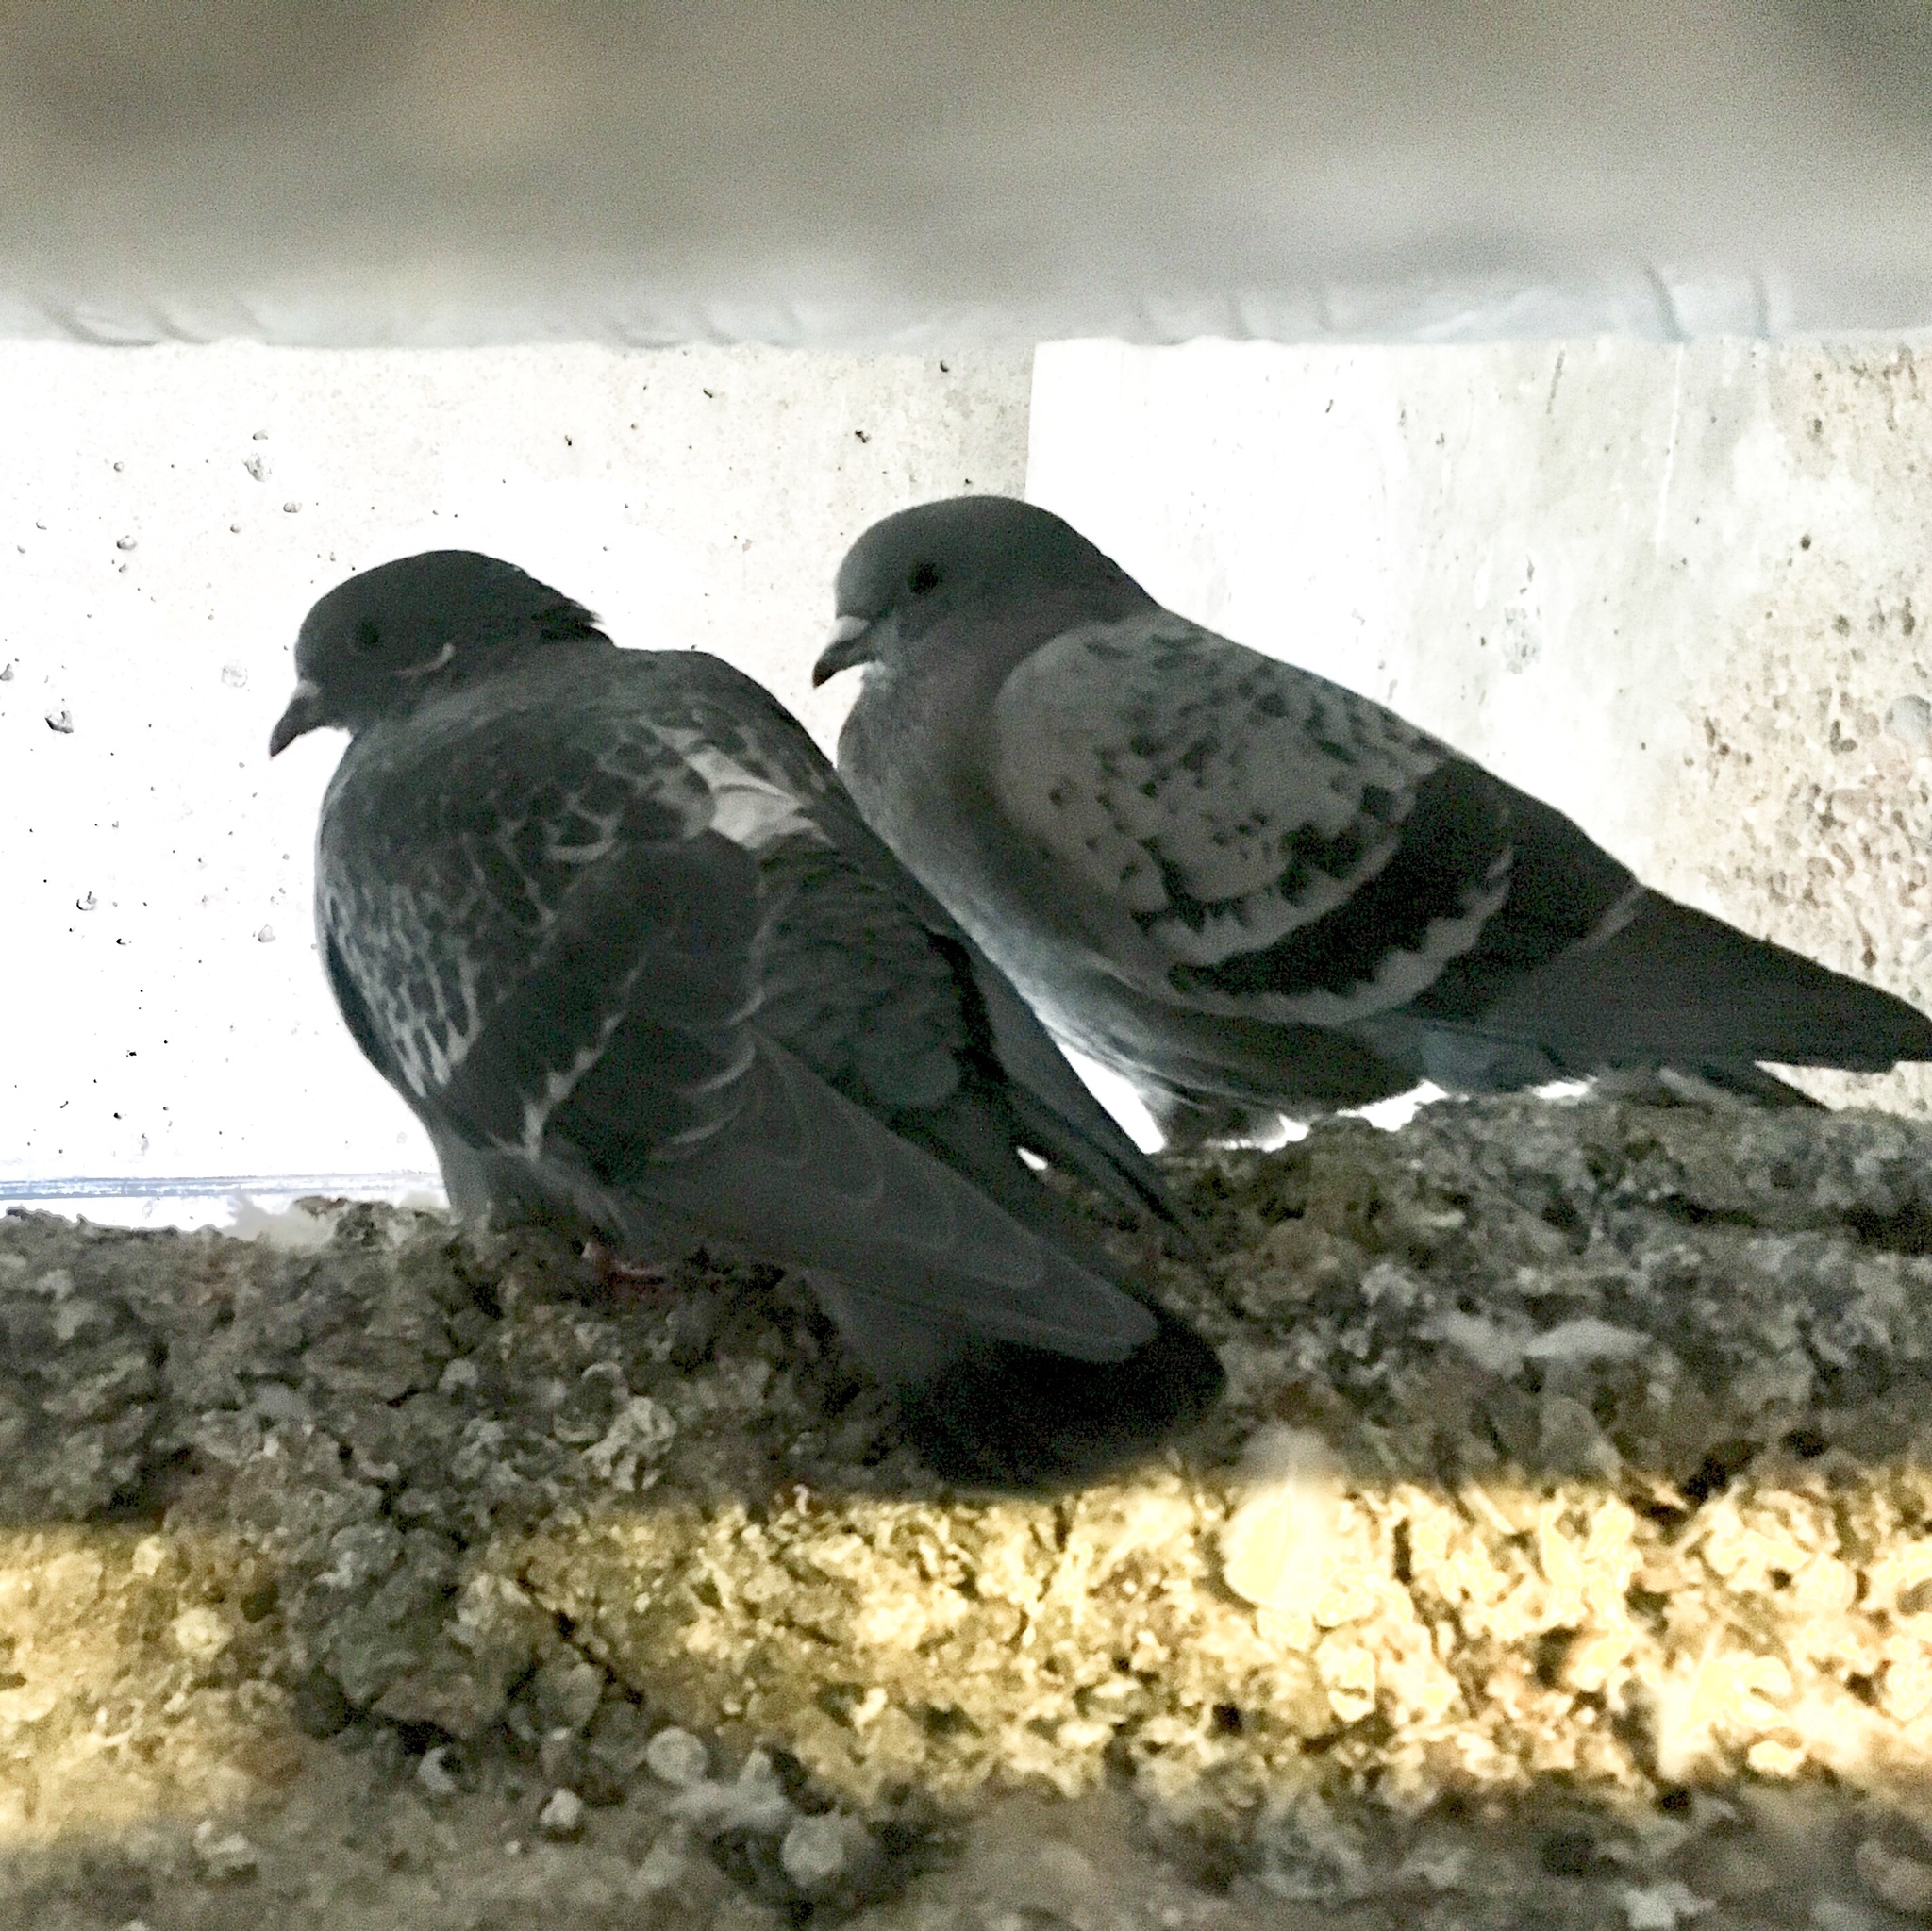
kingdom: Animalia
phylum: Chordata
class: Aves
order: Columbiformes
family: Columbidae
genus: Columba
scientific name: Columba livia
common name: Rock pigeon
